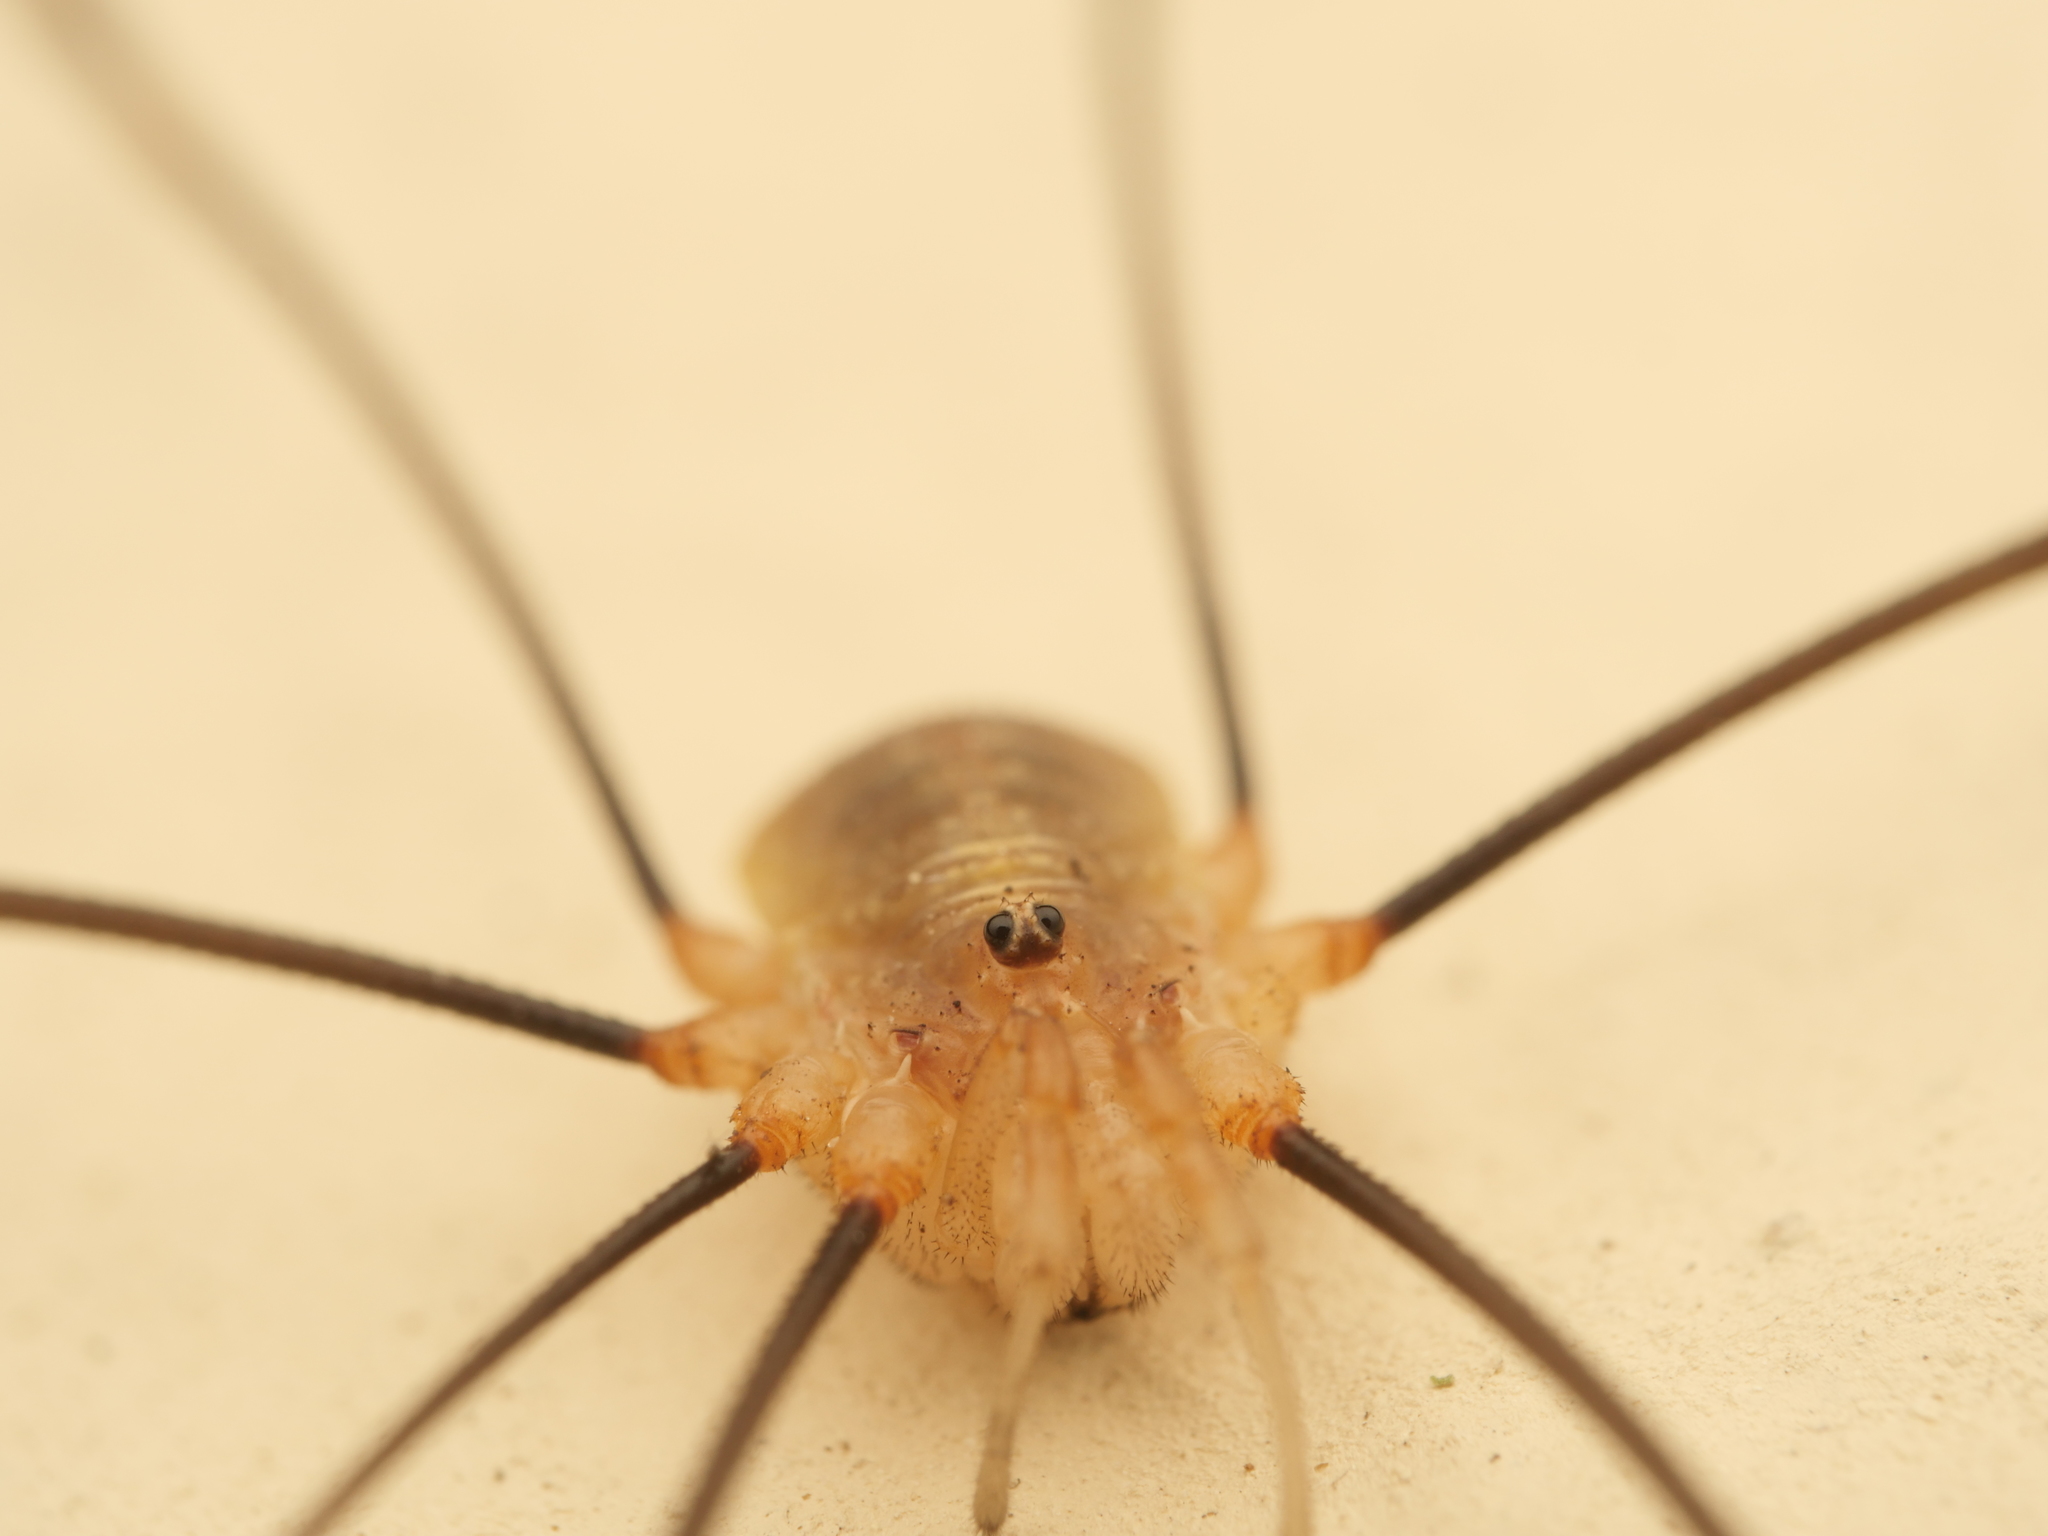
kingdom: Animalia
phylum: Arthropoda
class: Arachnida
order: Opiliones
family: Phalangiidae
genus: Opilio
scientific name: Opilio canestrinii
